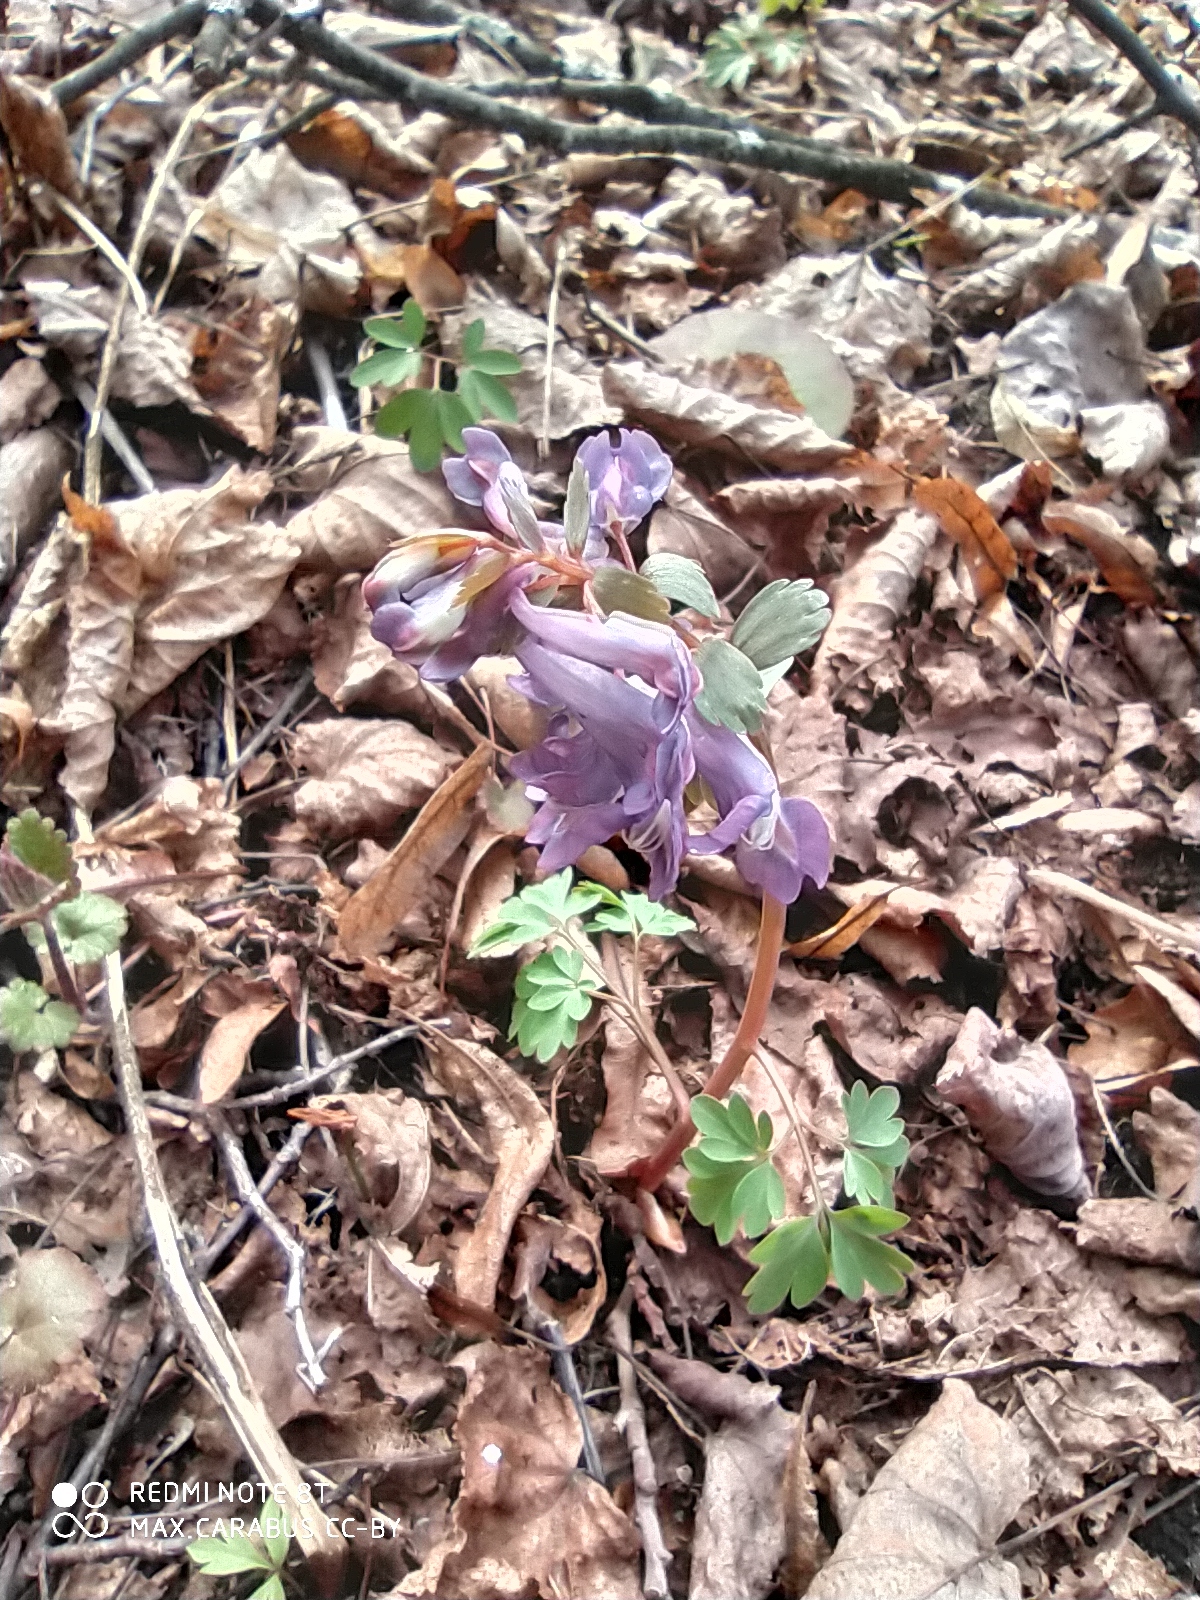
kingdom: Plantae
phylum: Tracheophyta
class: Magnoliopsida
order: Ranunculales
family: Papaveraceae
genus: Corydalis
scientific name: Corydalis solida
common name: Bird-in-a-bush
